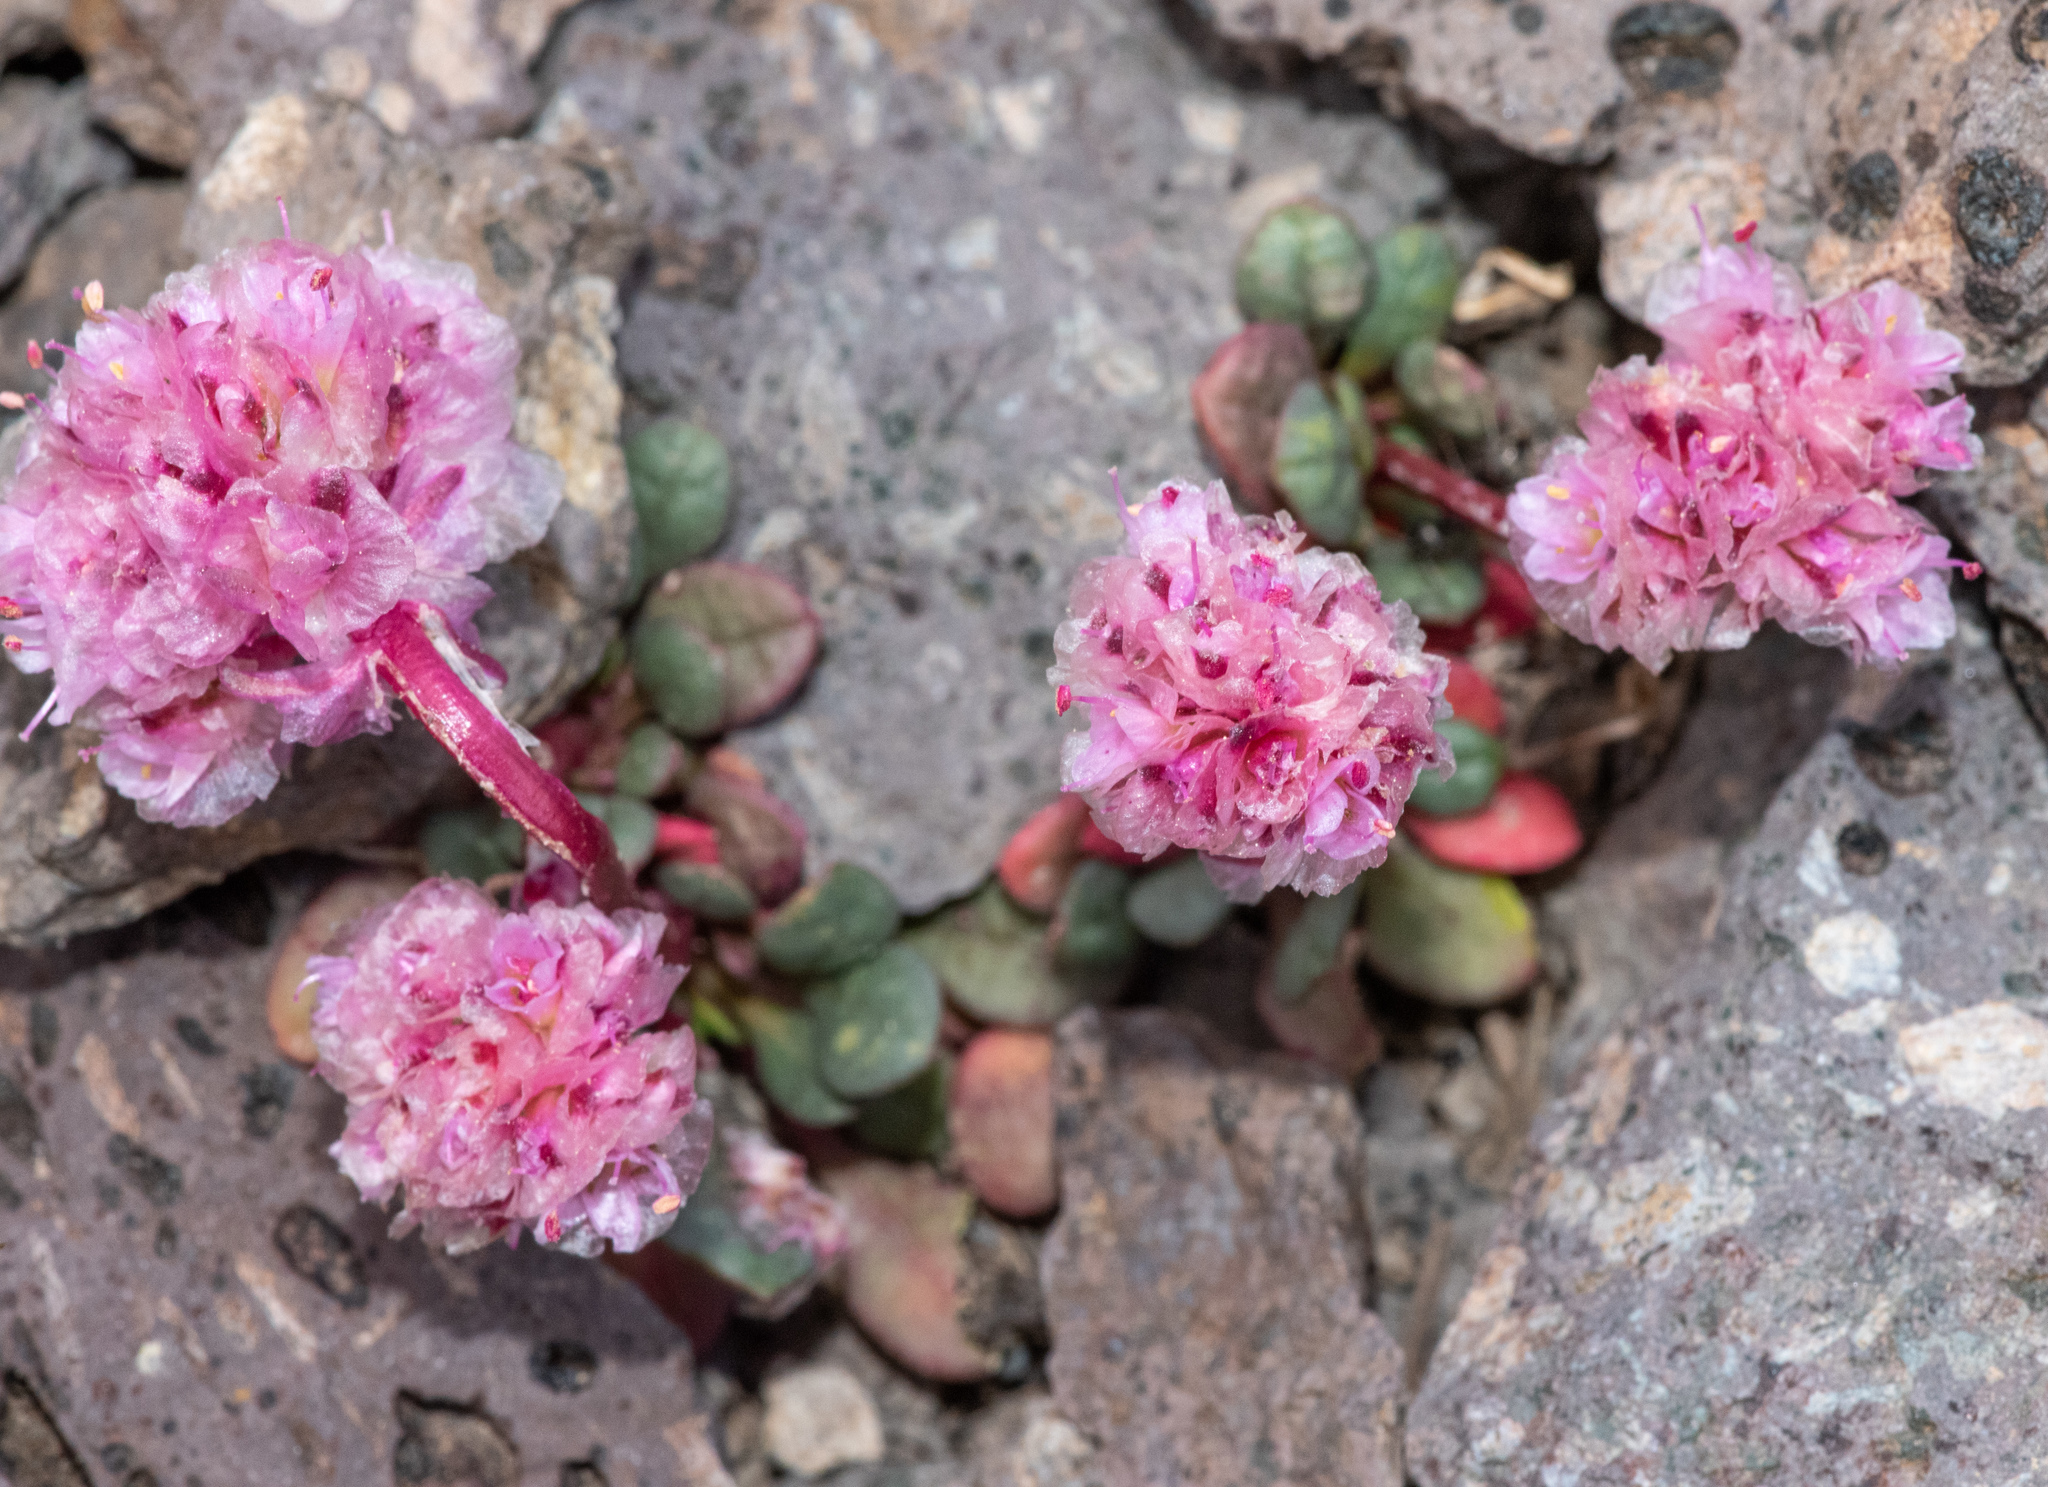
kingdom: Plantae
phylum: Tracheophyta
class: Magnoliopsida
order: Caryophyllales
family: Montiaceae
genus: Calyptridium
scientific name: Calyptridium umbellatum
